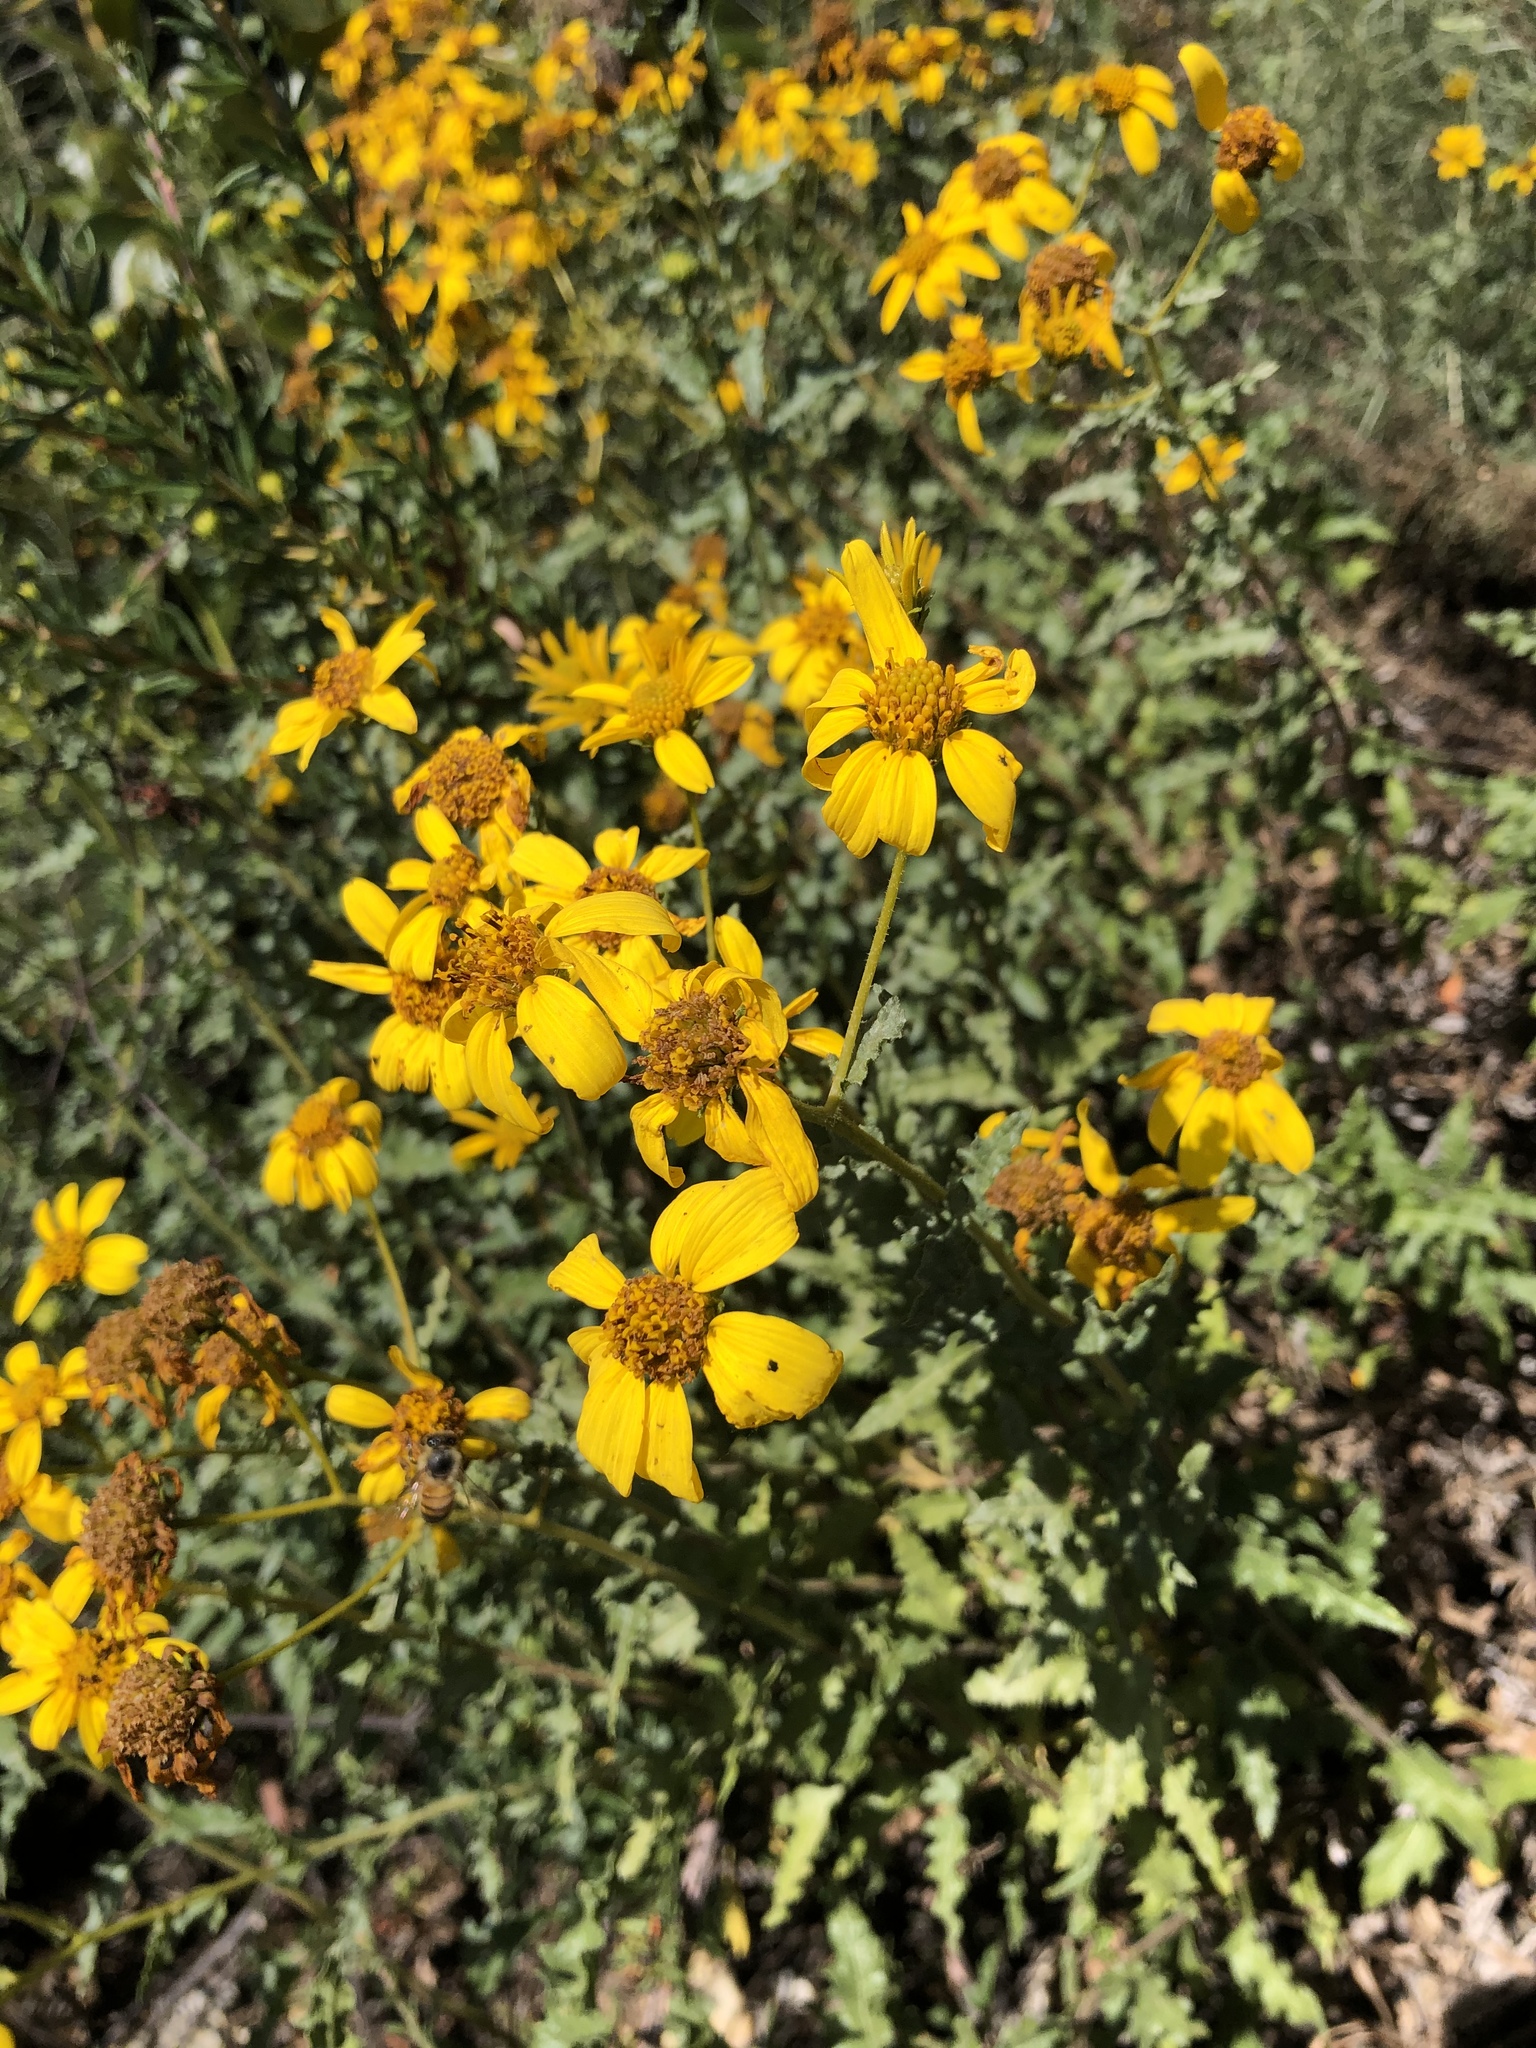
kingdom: Plantae
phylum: Tracheophyta
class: Magnoliopsida
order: Asterales
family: Asteraceae
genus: Bahiopsis
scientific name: Bahiopsis laciniata
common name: San diego county viguiera
